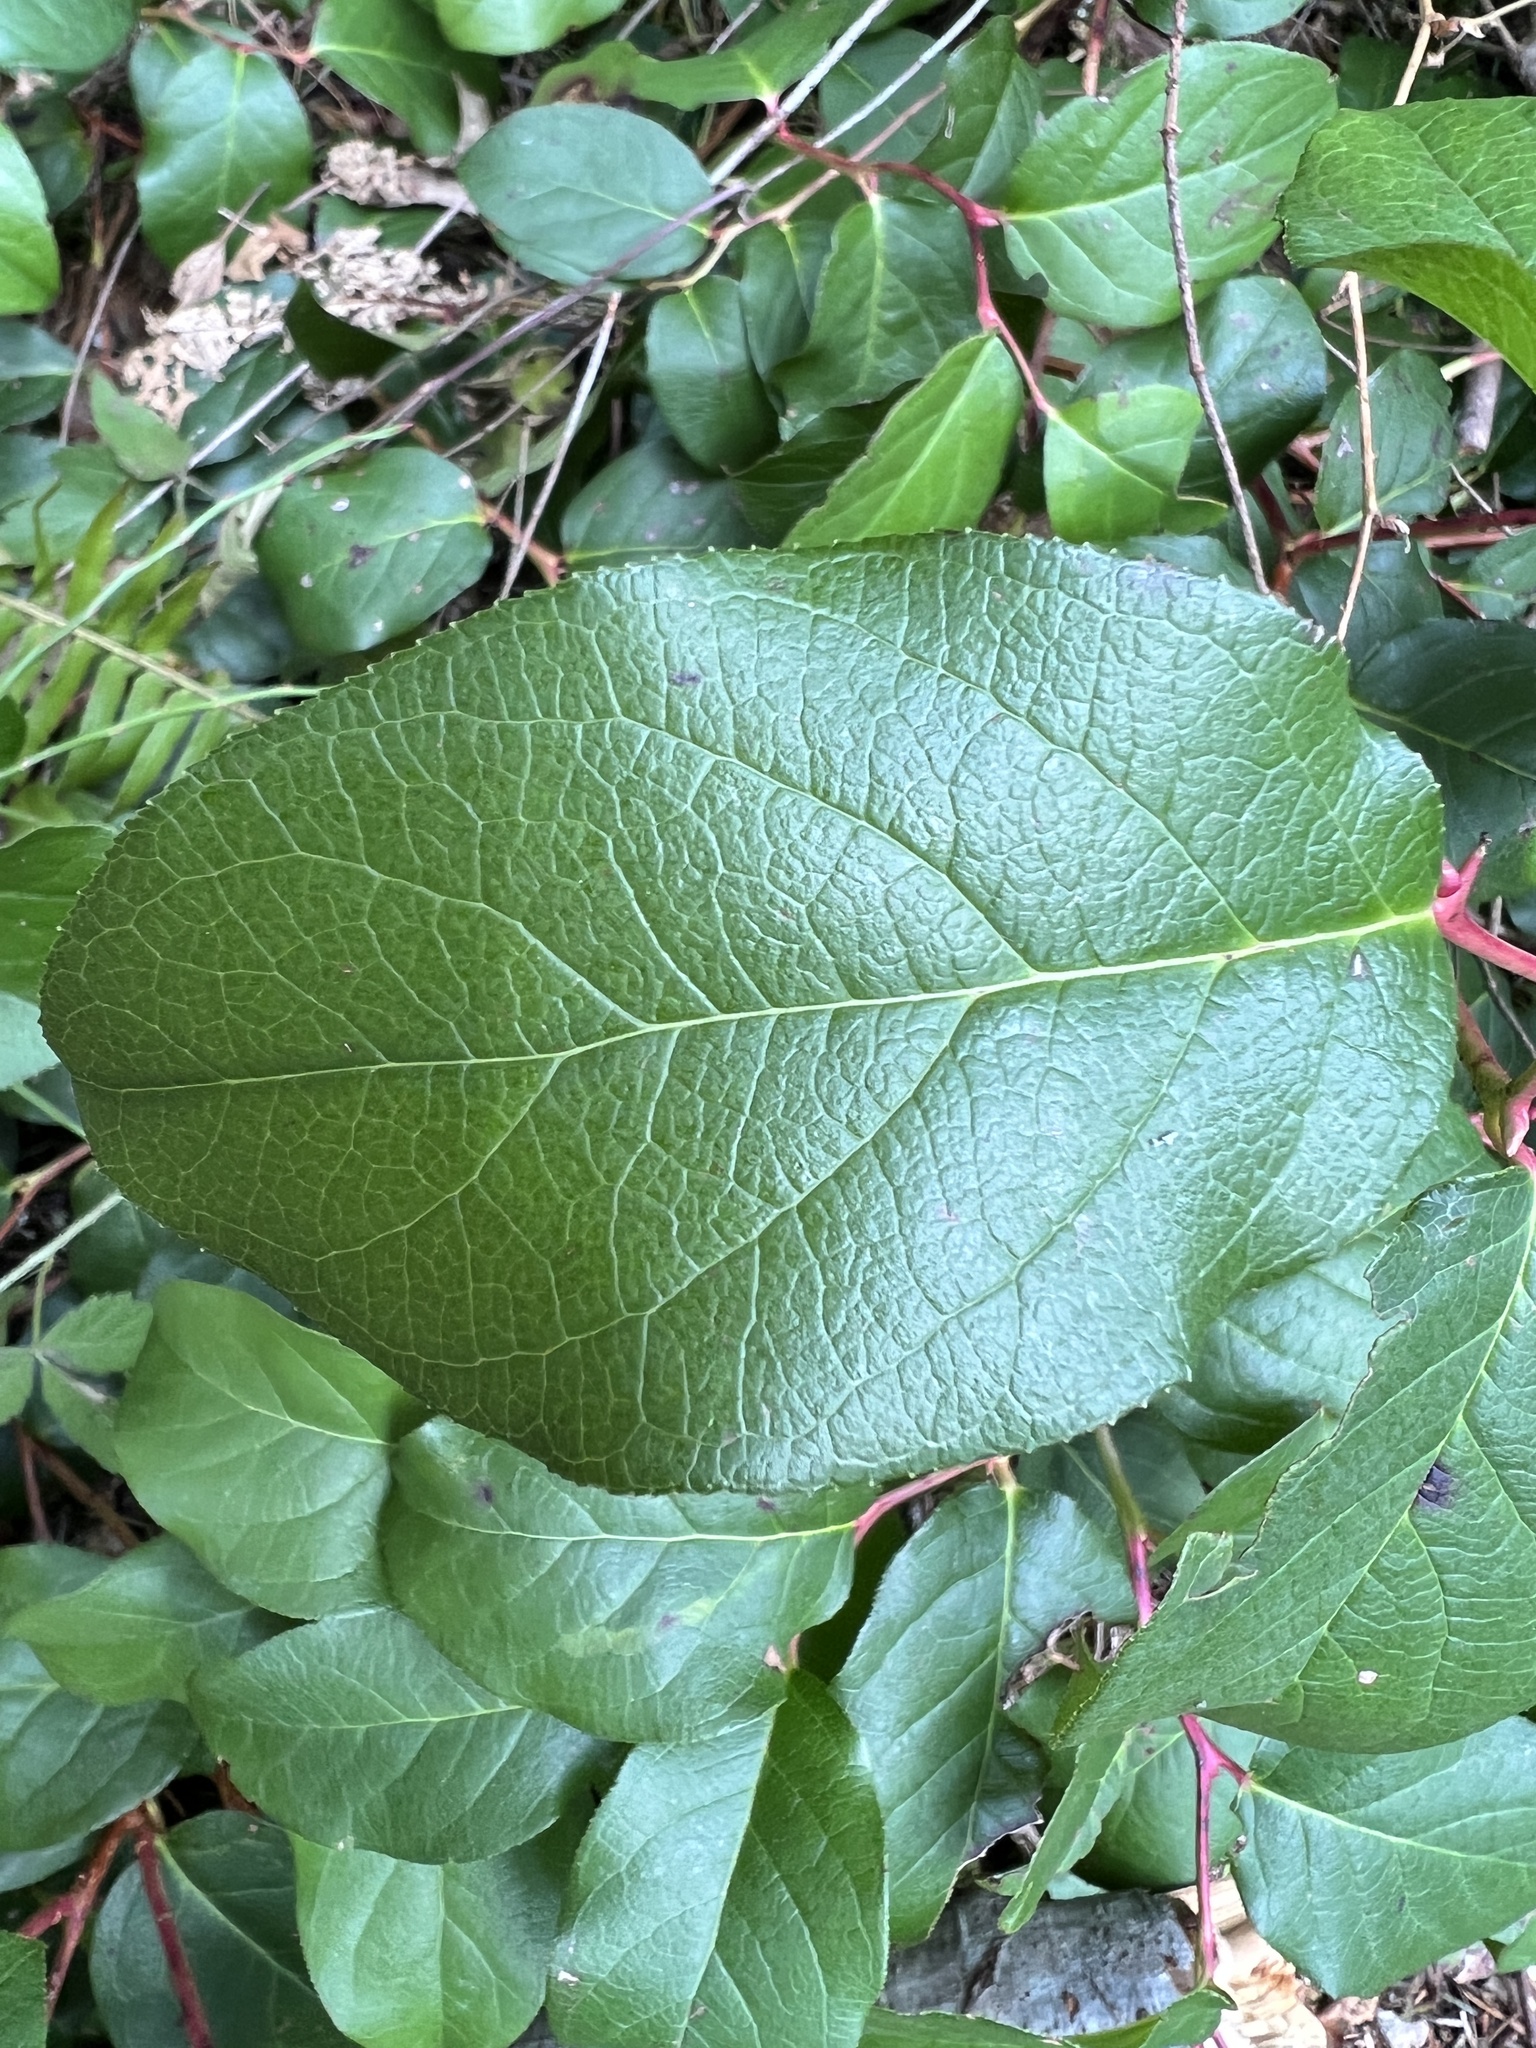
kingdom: Plantae
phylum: Tracheophyta
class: Magnoliopsida
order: Ericales
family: Ericaceae
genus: Gaultheria
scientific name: Gaultheria shallon
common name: Shallon
